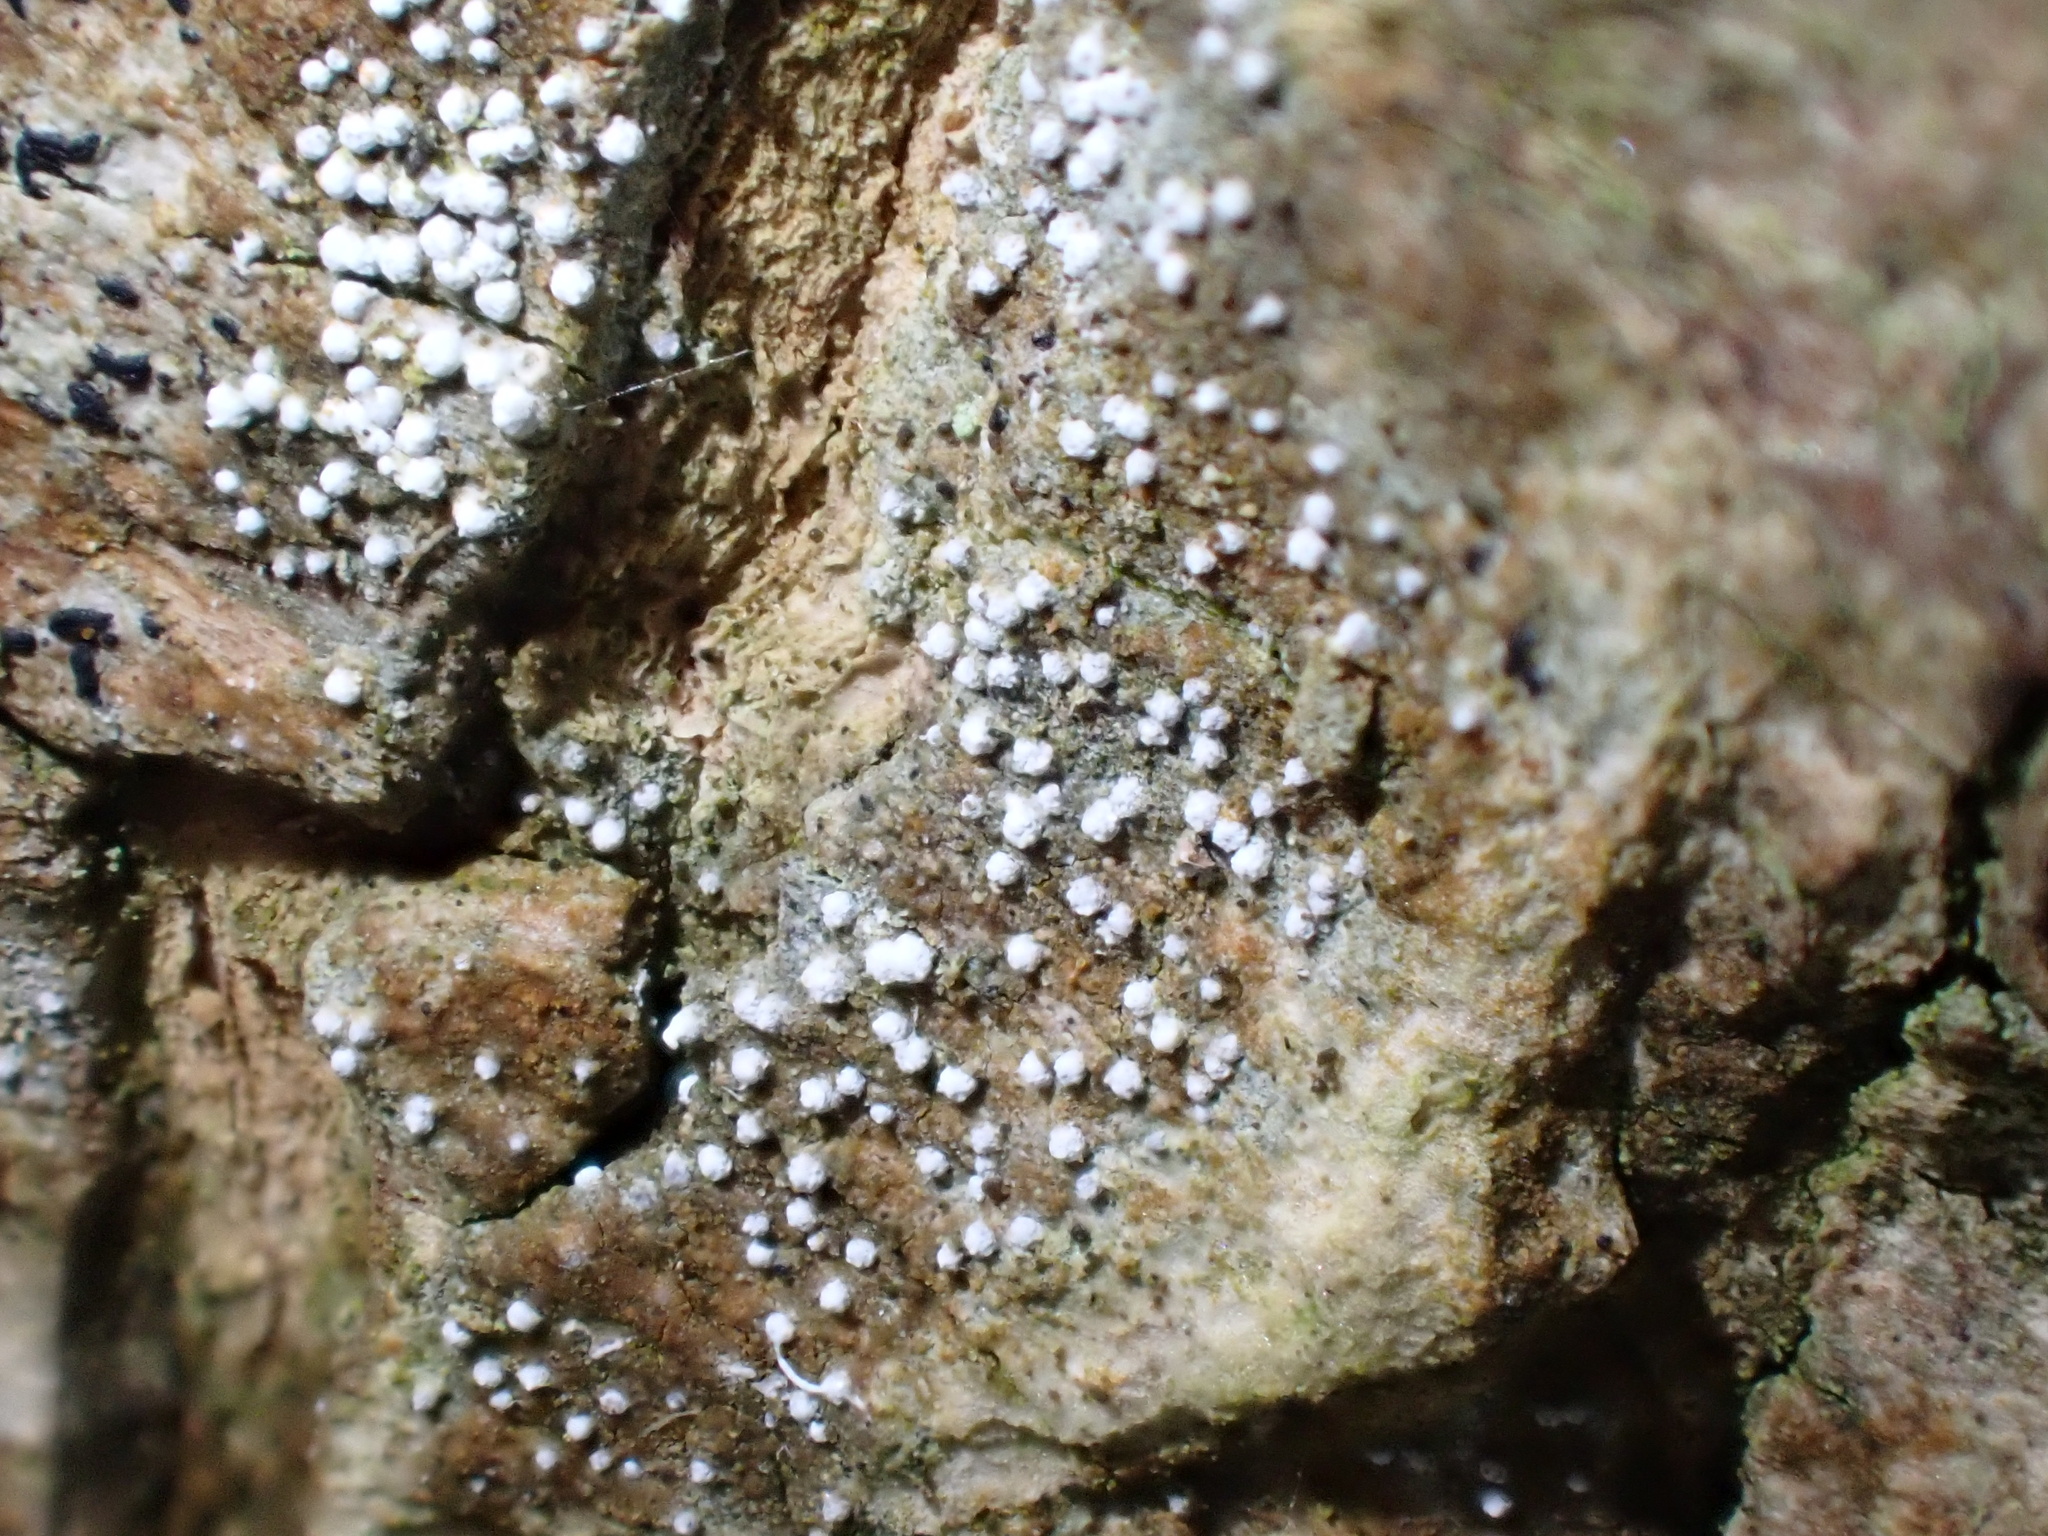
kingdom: Fungi
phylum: Ascomycota
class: Arthoniomycetes
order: Arthoniales
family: Opegraphaceae
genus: Opegrapha
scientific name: Opegrapha vermicellifera
